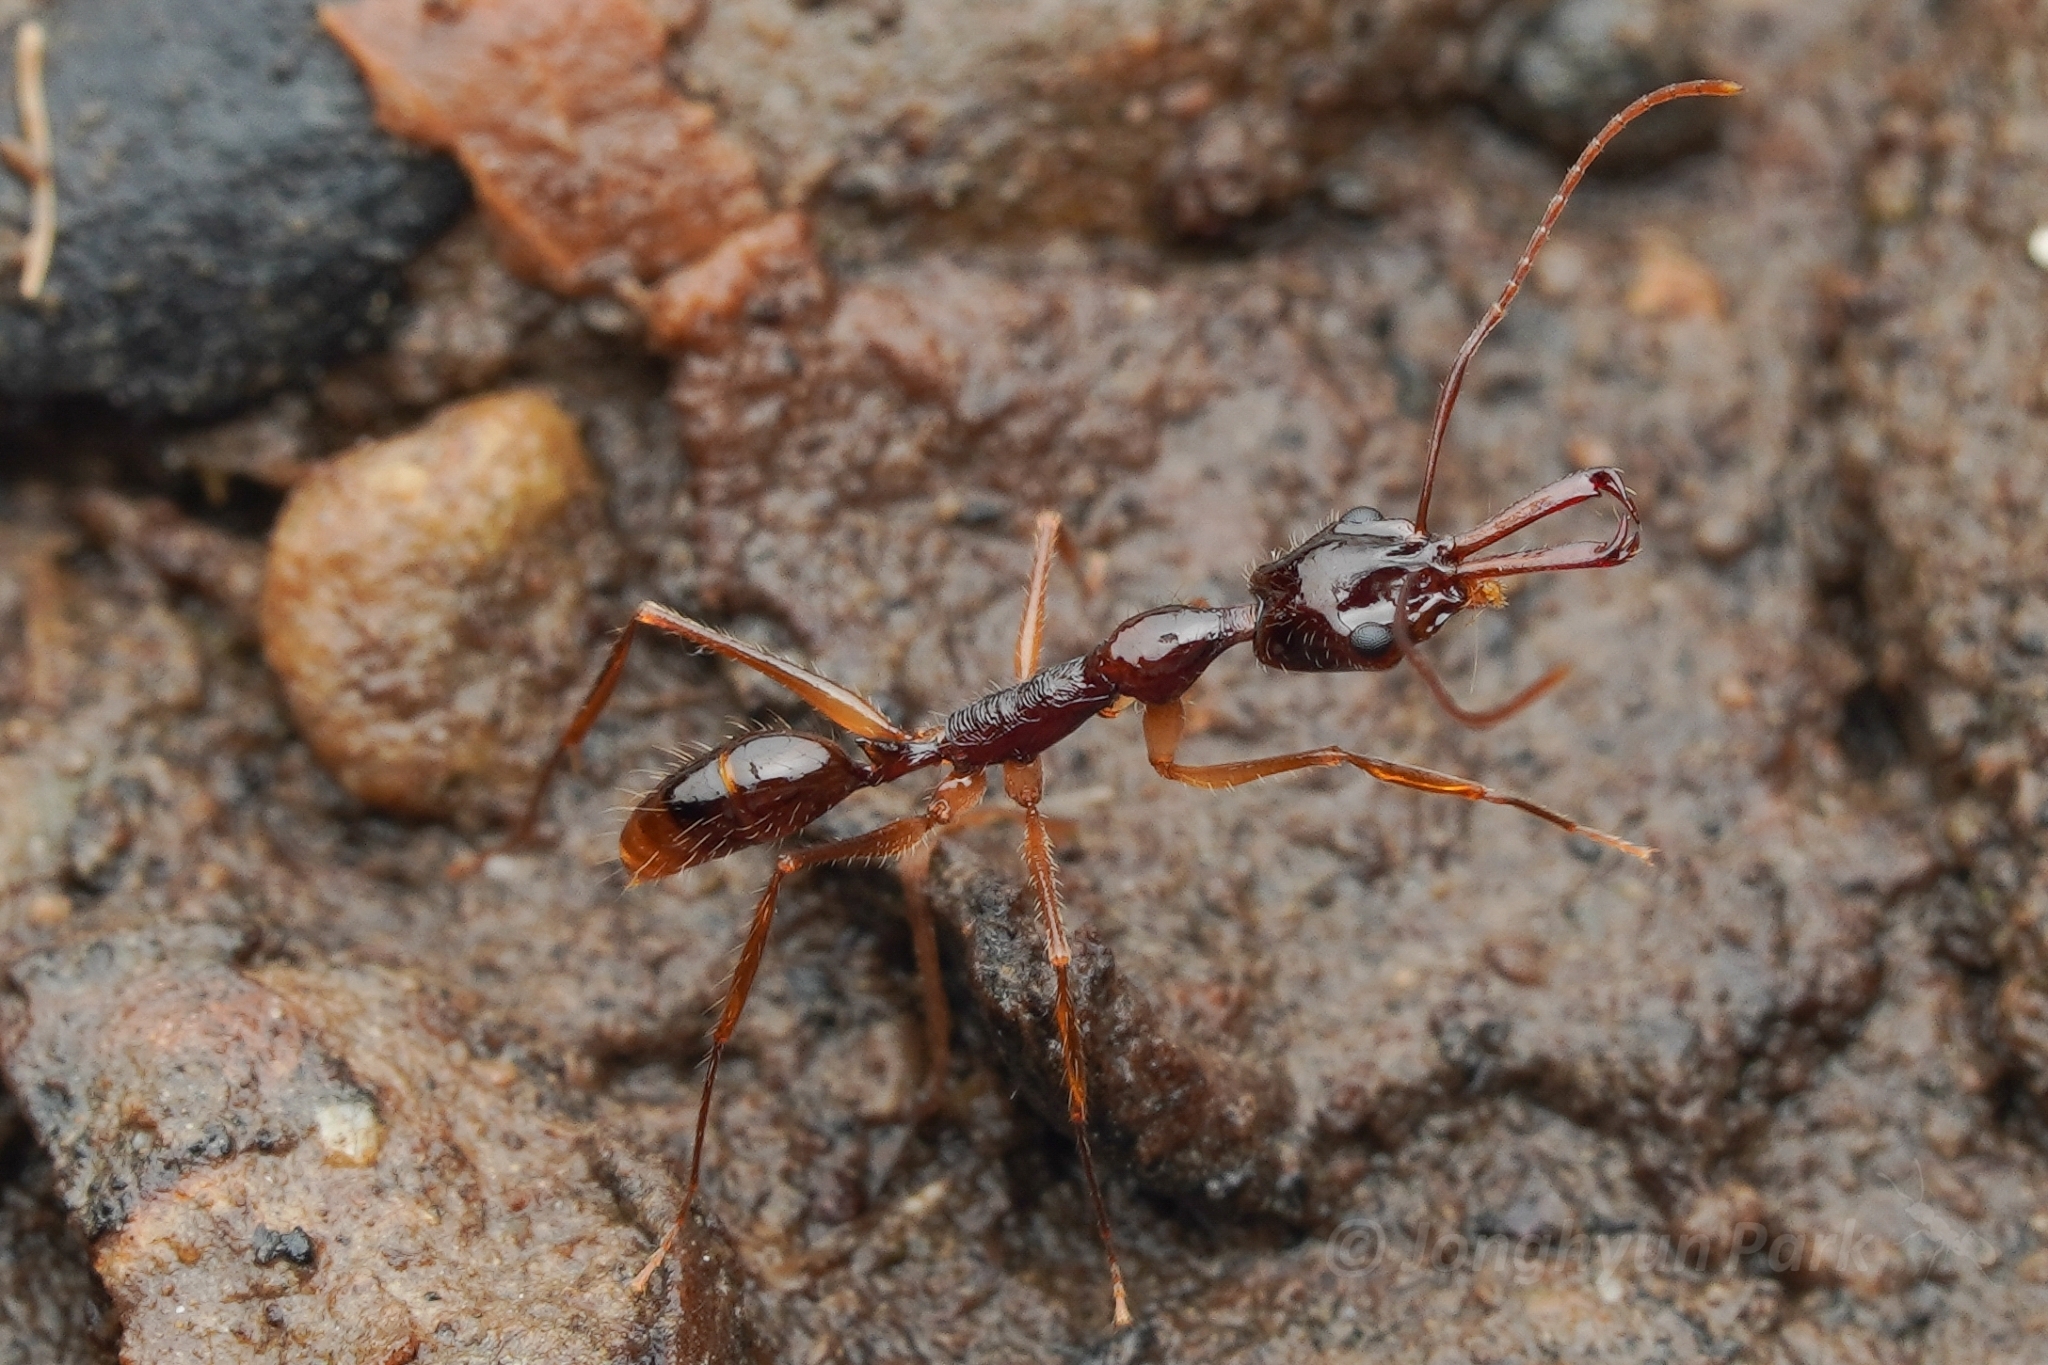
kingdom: Animalia
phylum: Arthropoda
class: Insecta
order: Hymenoptera
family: Formicidae
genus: Anochetus
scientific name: Anochetus agilis
